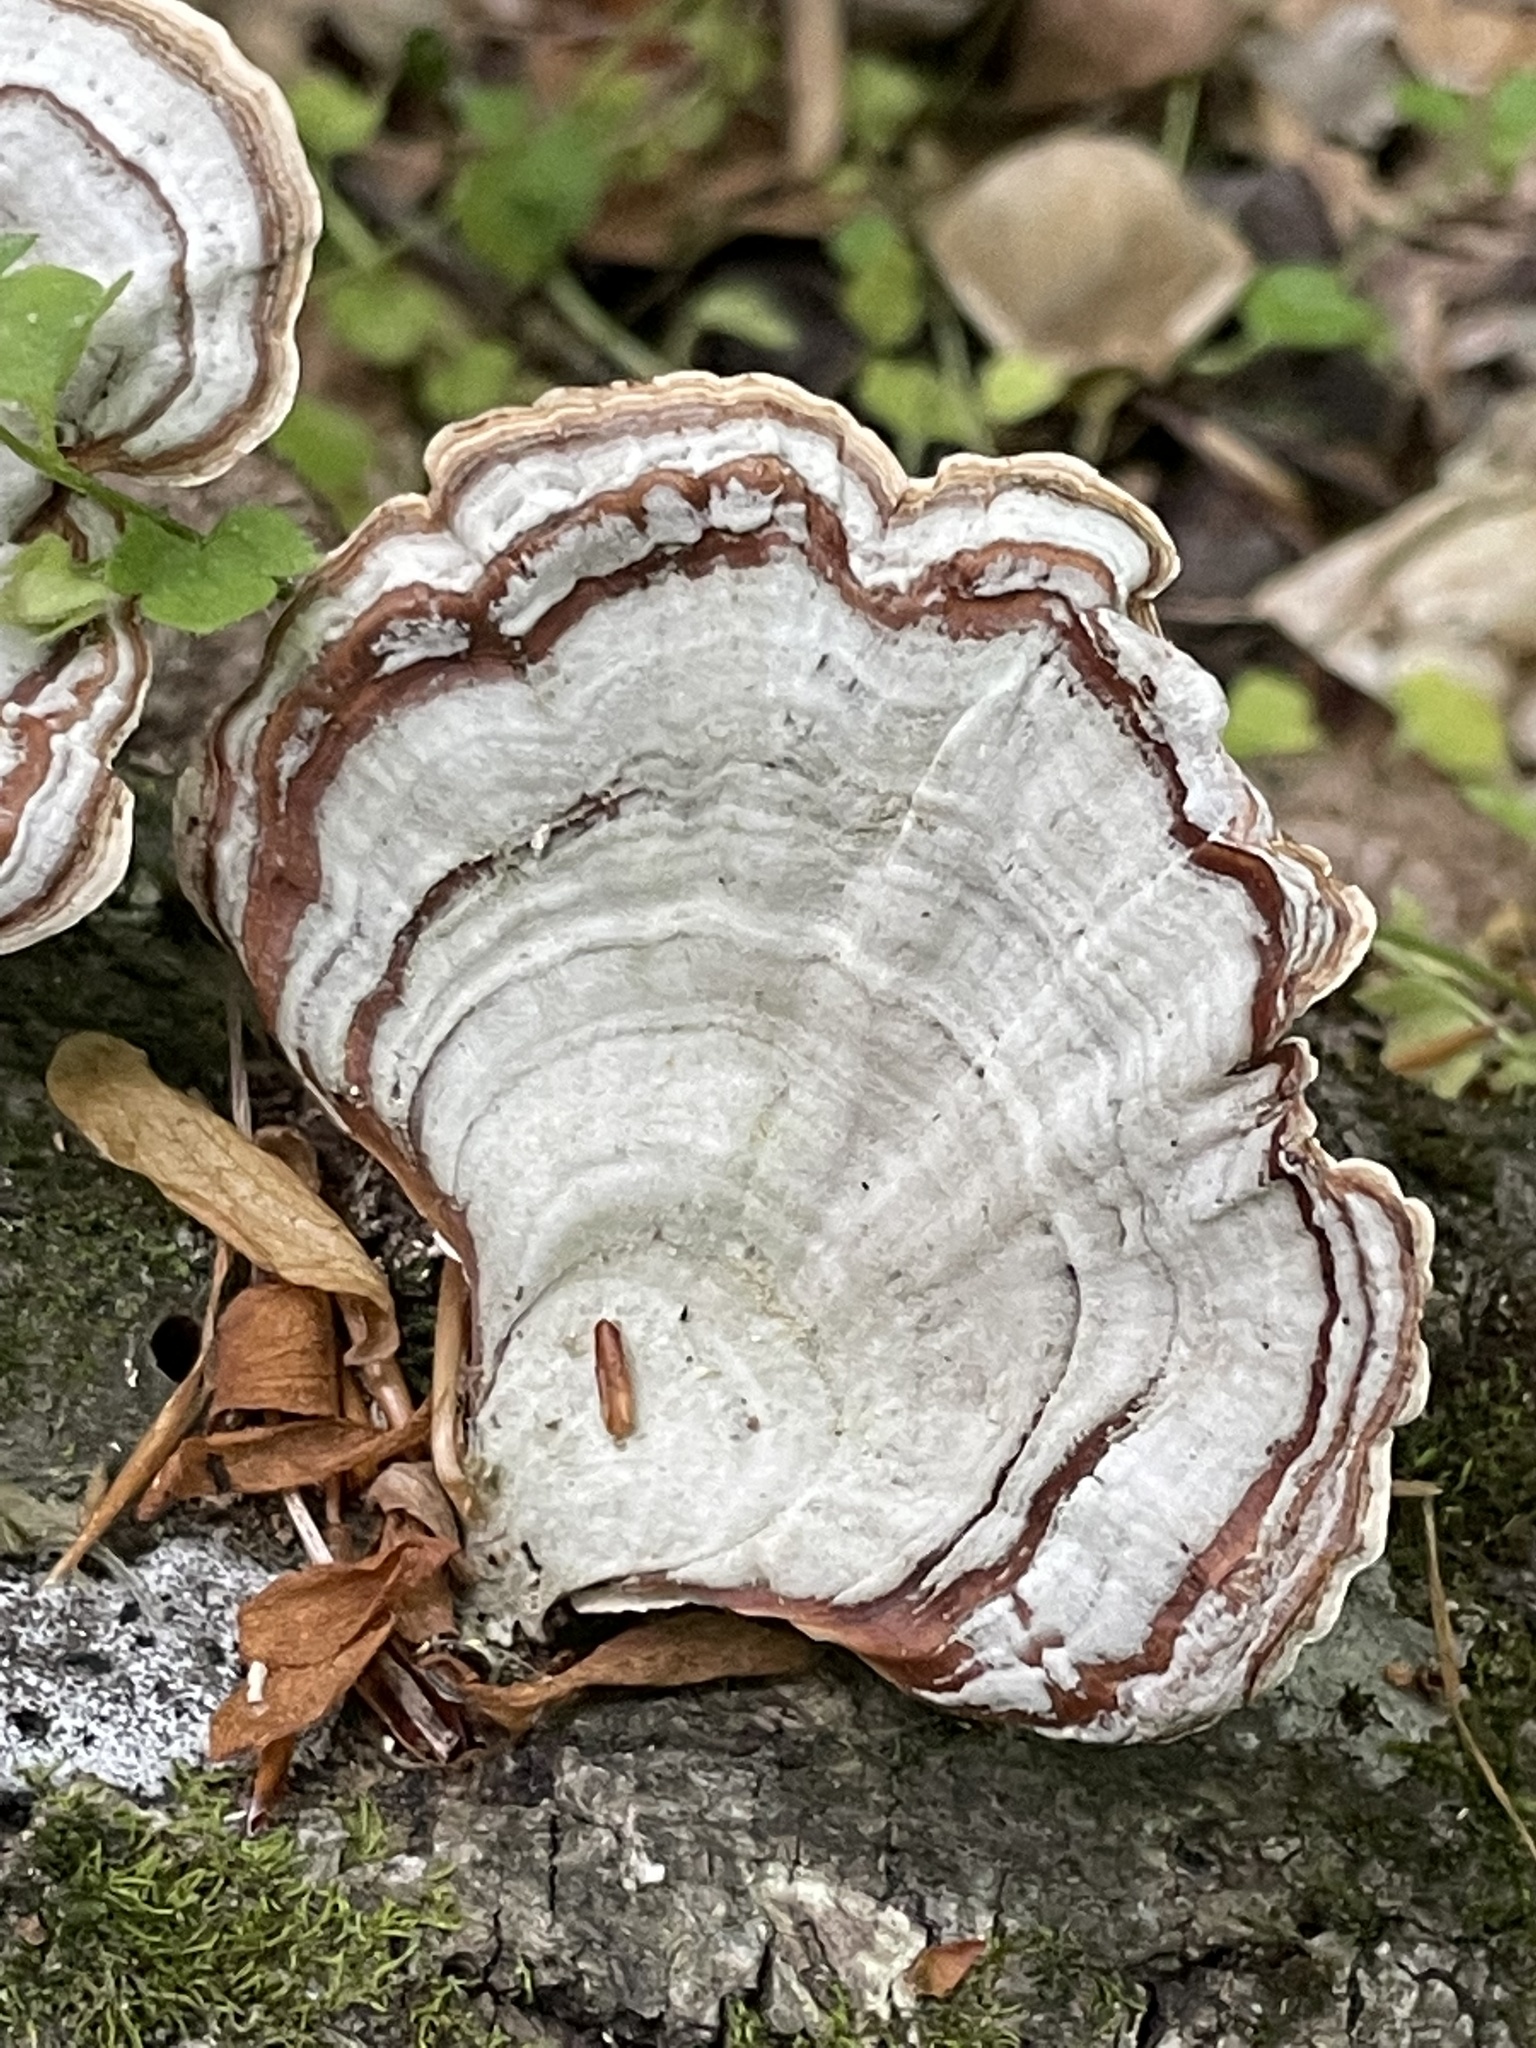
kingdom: Fungi
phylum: Basidiomycota
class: Agaricomycetes
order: Russulales
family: Stereaceae
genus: Stereum
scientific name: Stereum lobatum
